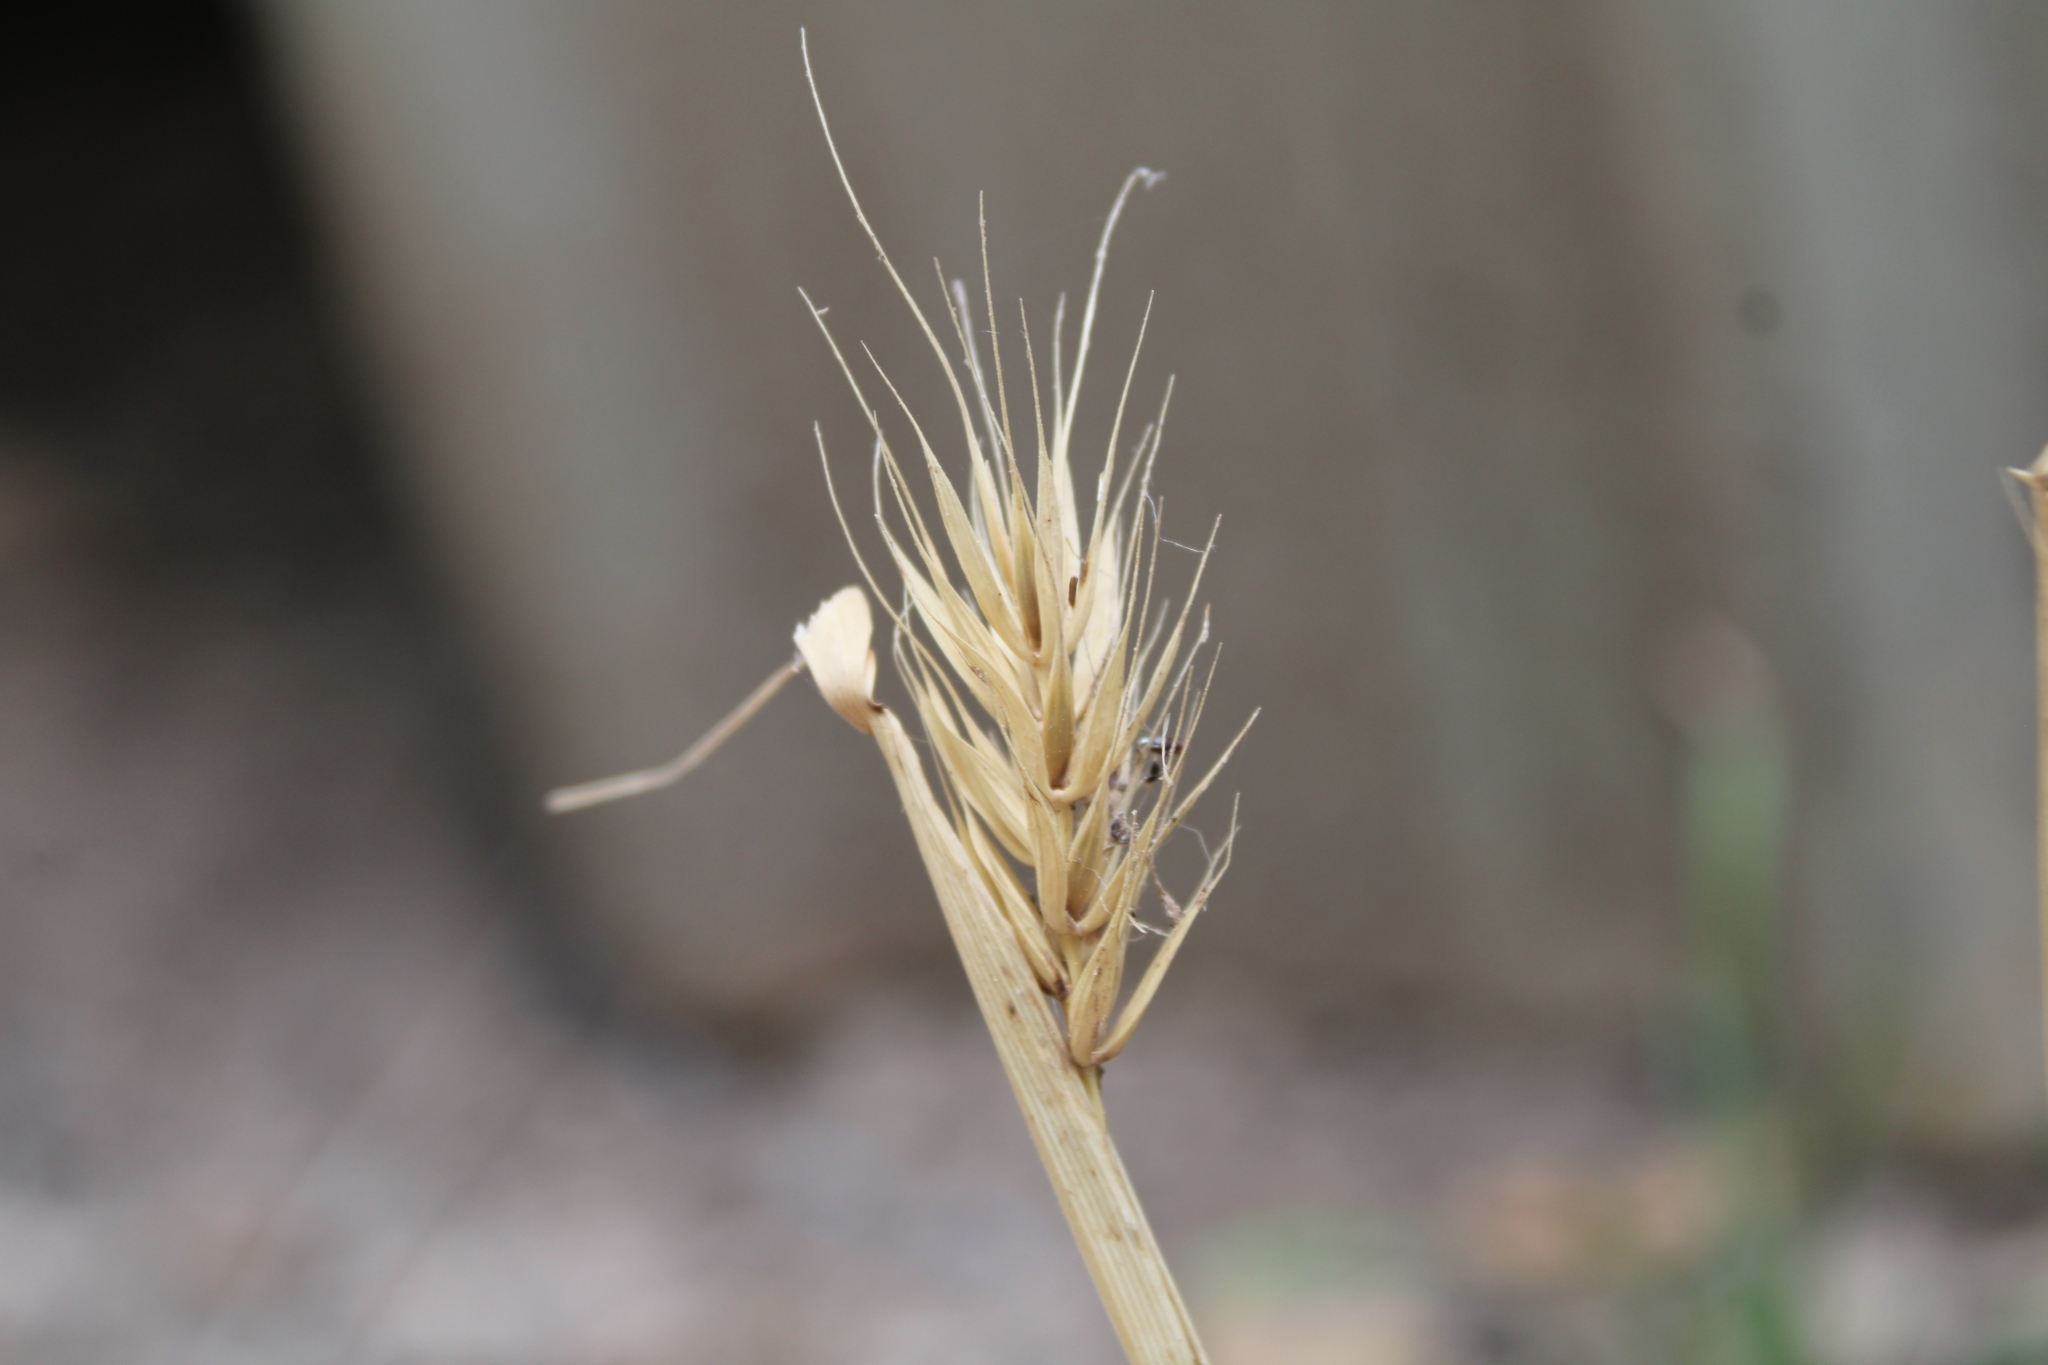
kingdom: Plantae
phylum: Tracheophyta
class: Liliopsida
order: Poales
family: Poaceae
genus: Elymus
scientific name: Elymus virginicus
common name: Common eastern wildrye
